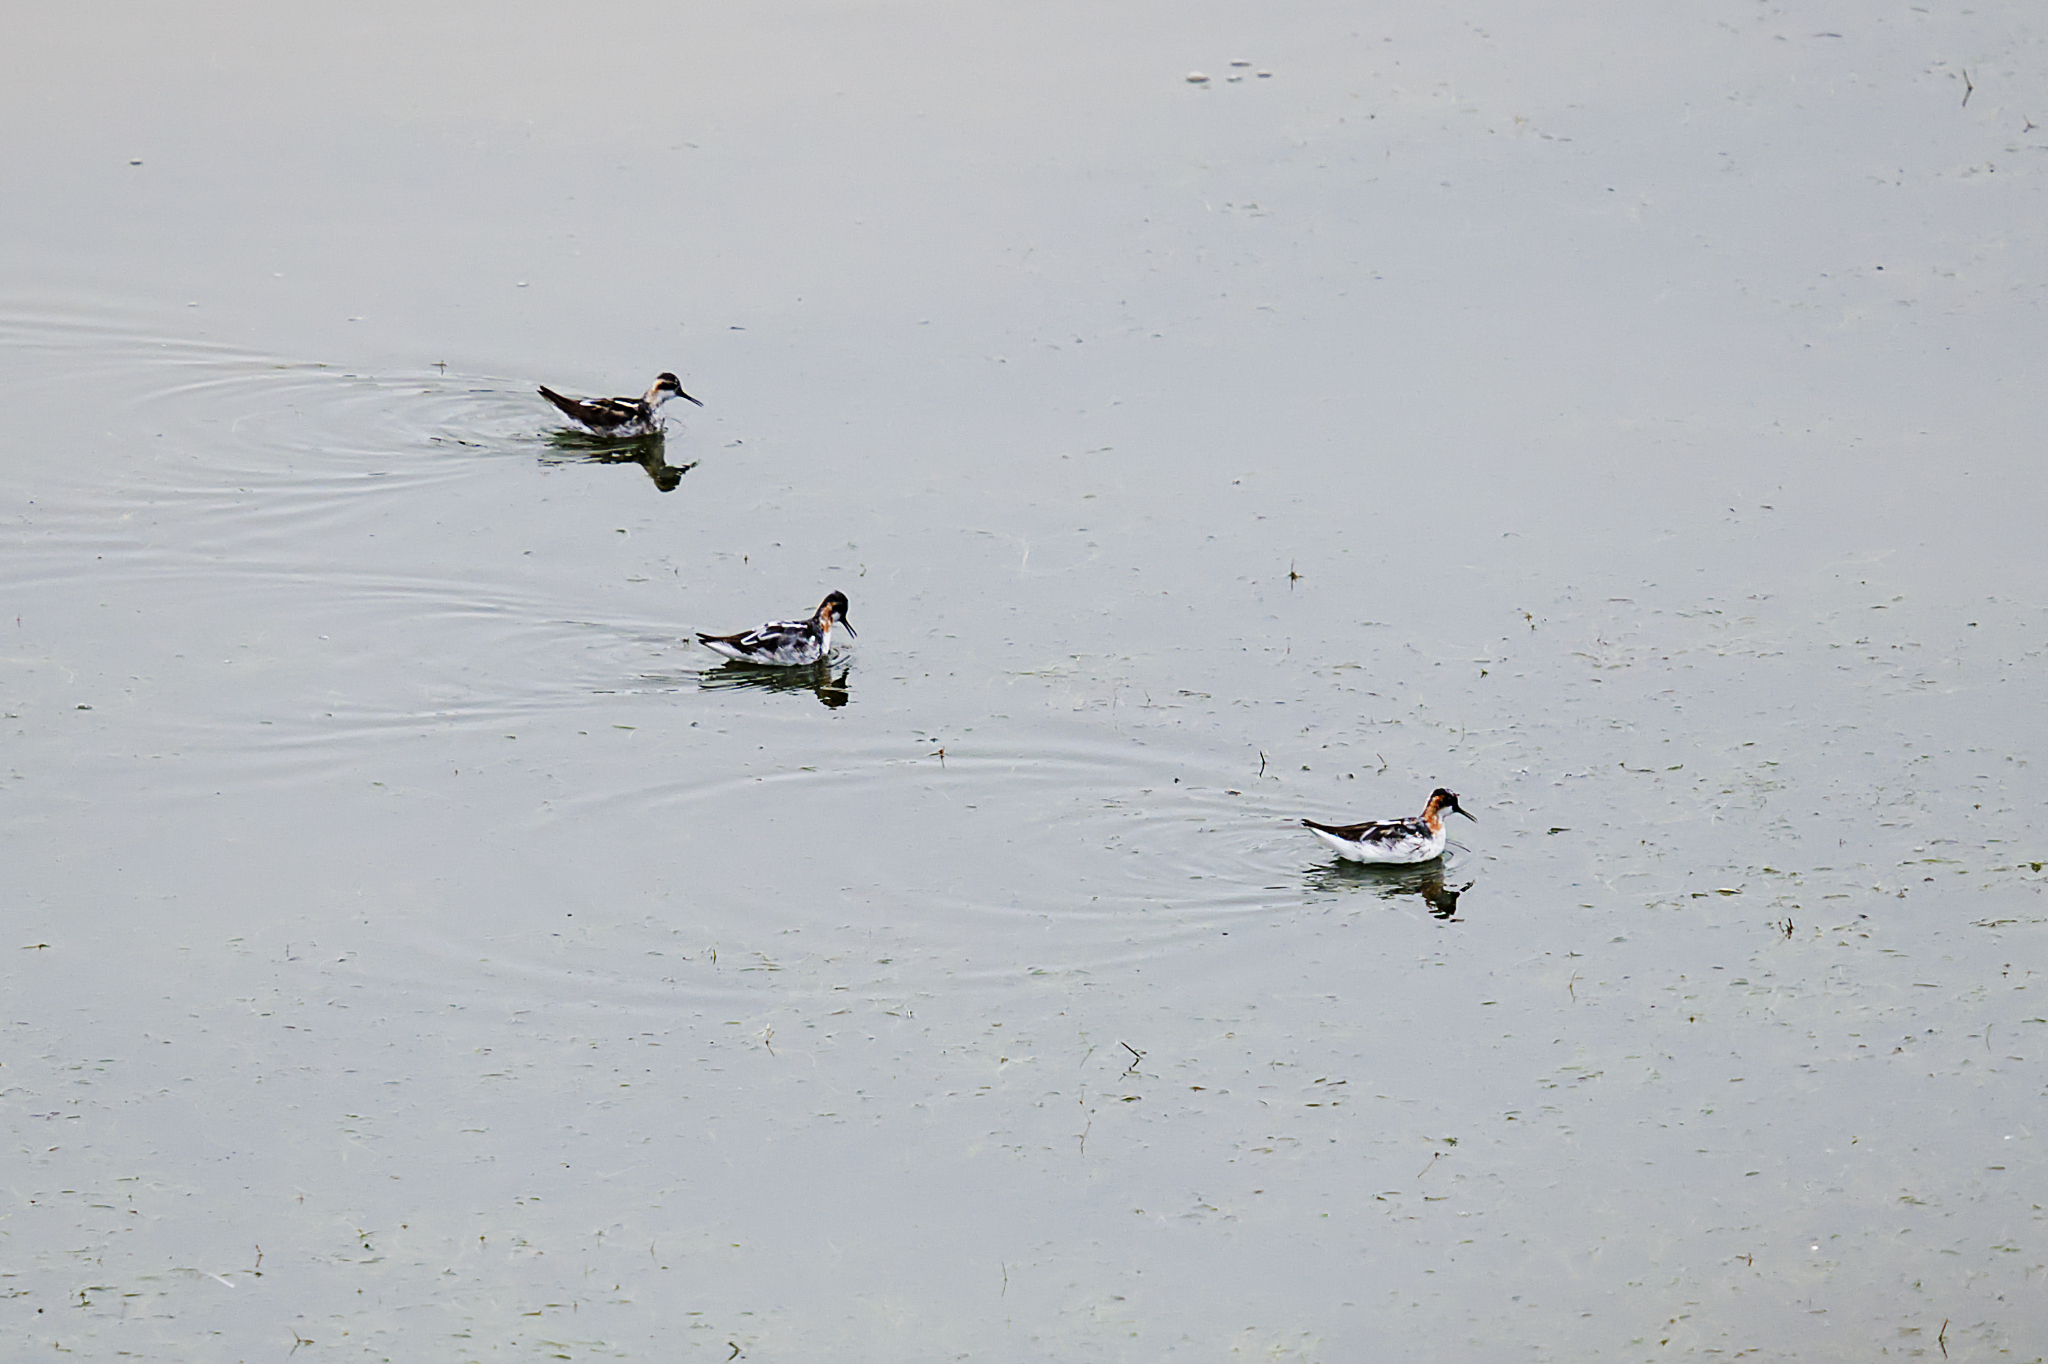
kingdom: Animalia
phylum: Chordata
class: Aves
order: Charadriiformes
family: Scolopacidae
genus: Phalaropus
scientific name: Phalaropus lobatus
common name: Red-necked phalarope
